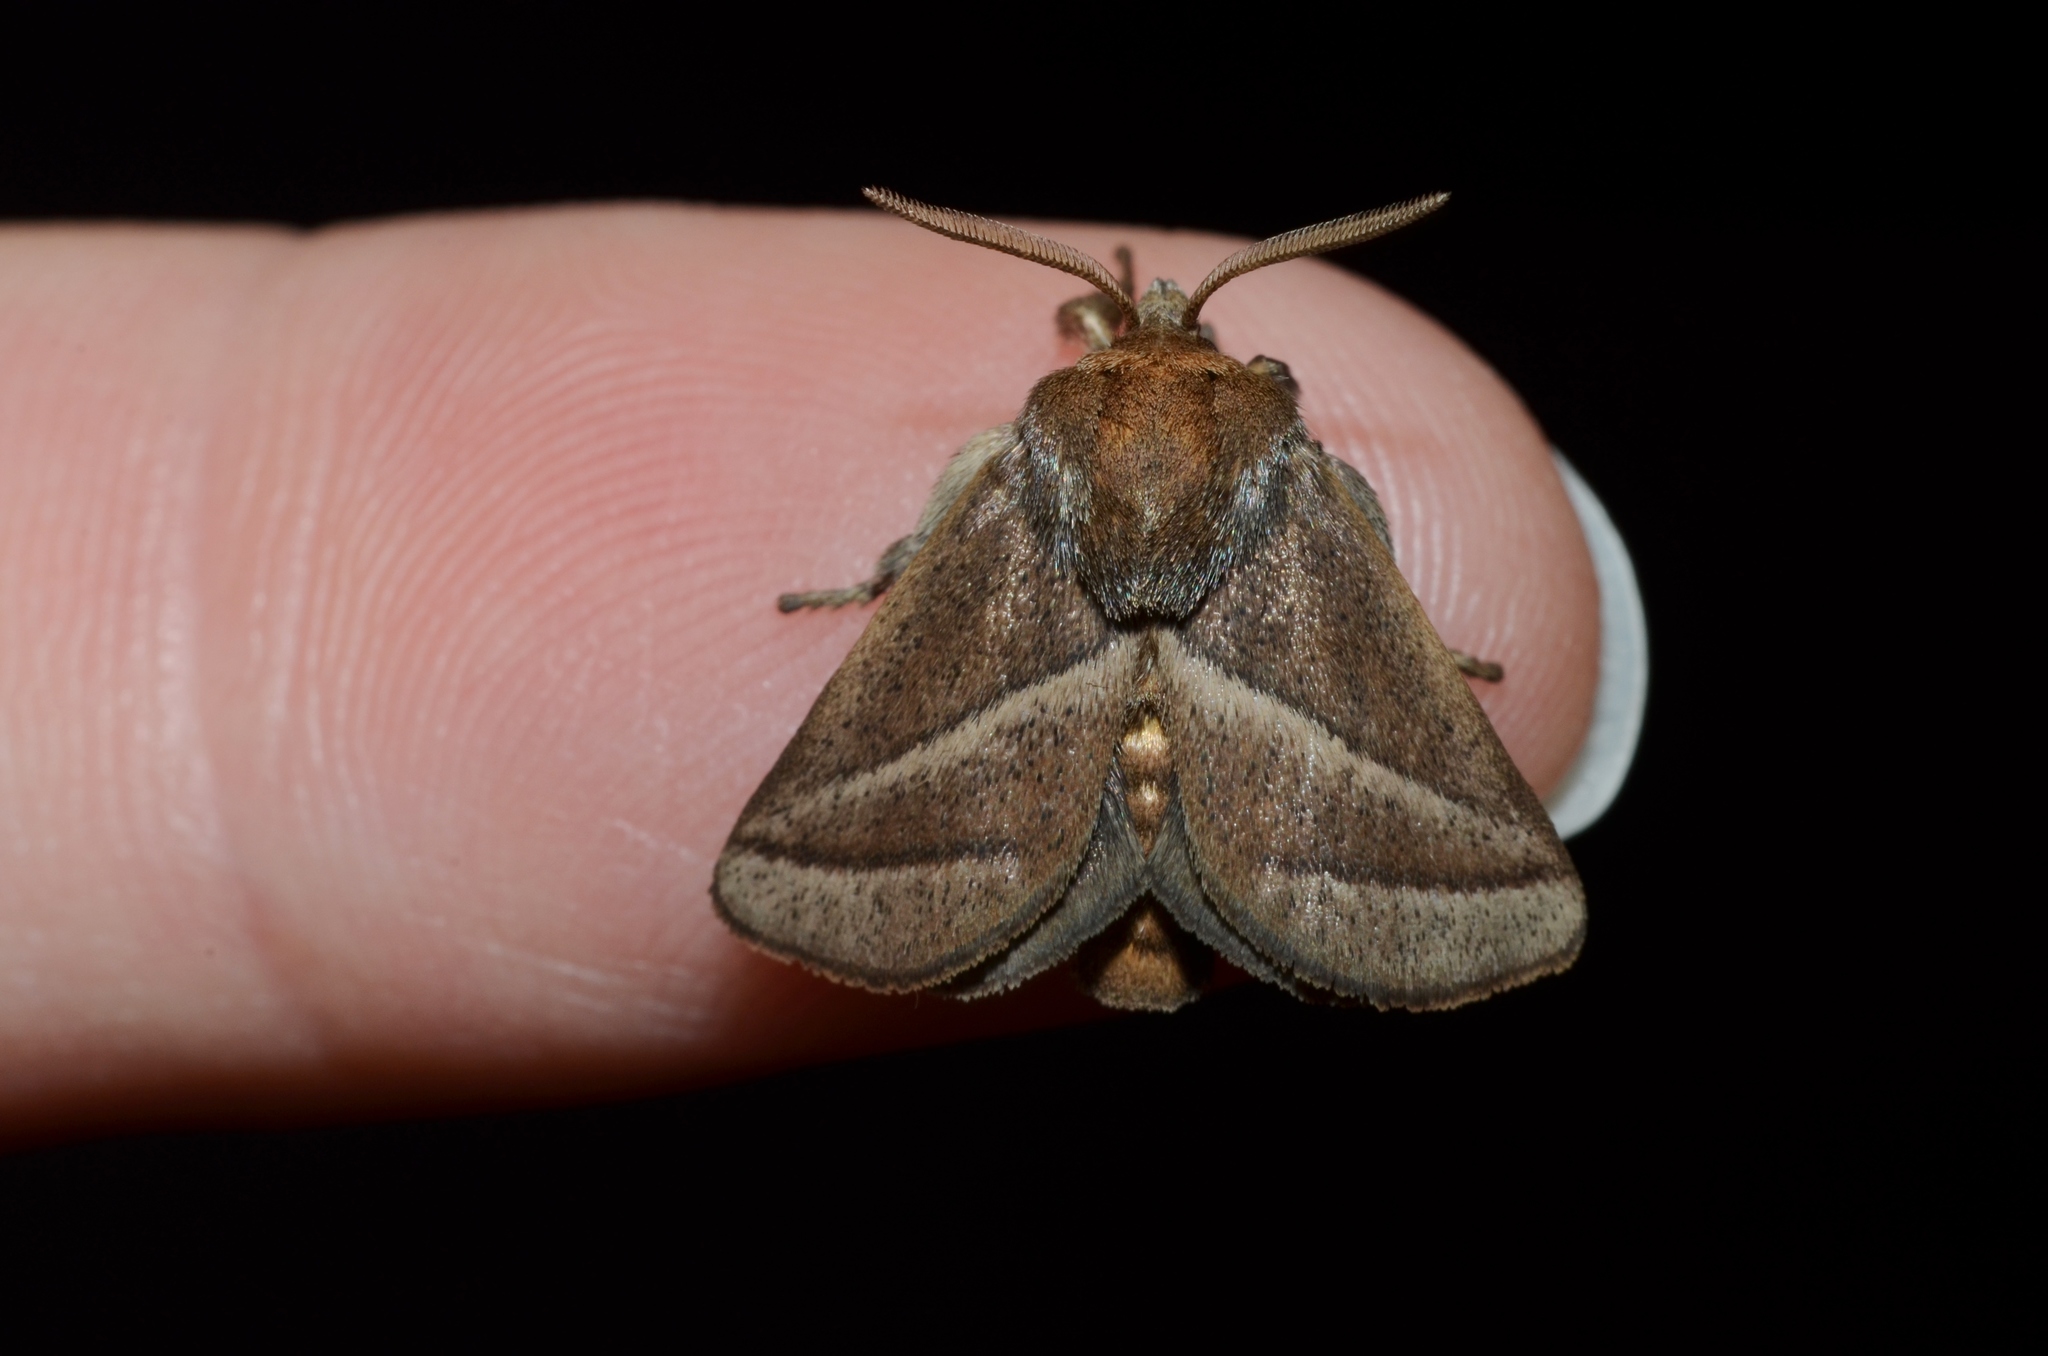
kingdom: Animalia
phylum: Arthropoda
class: Insecta
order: Lepidoptera
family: Limacodidae
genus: Natada
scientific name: Natada nasoni
